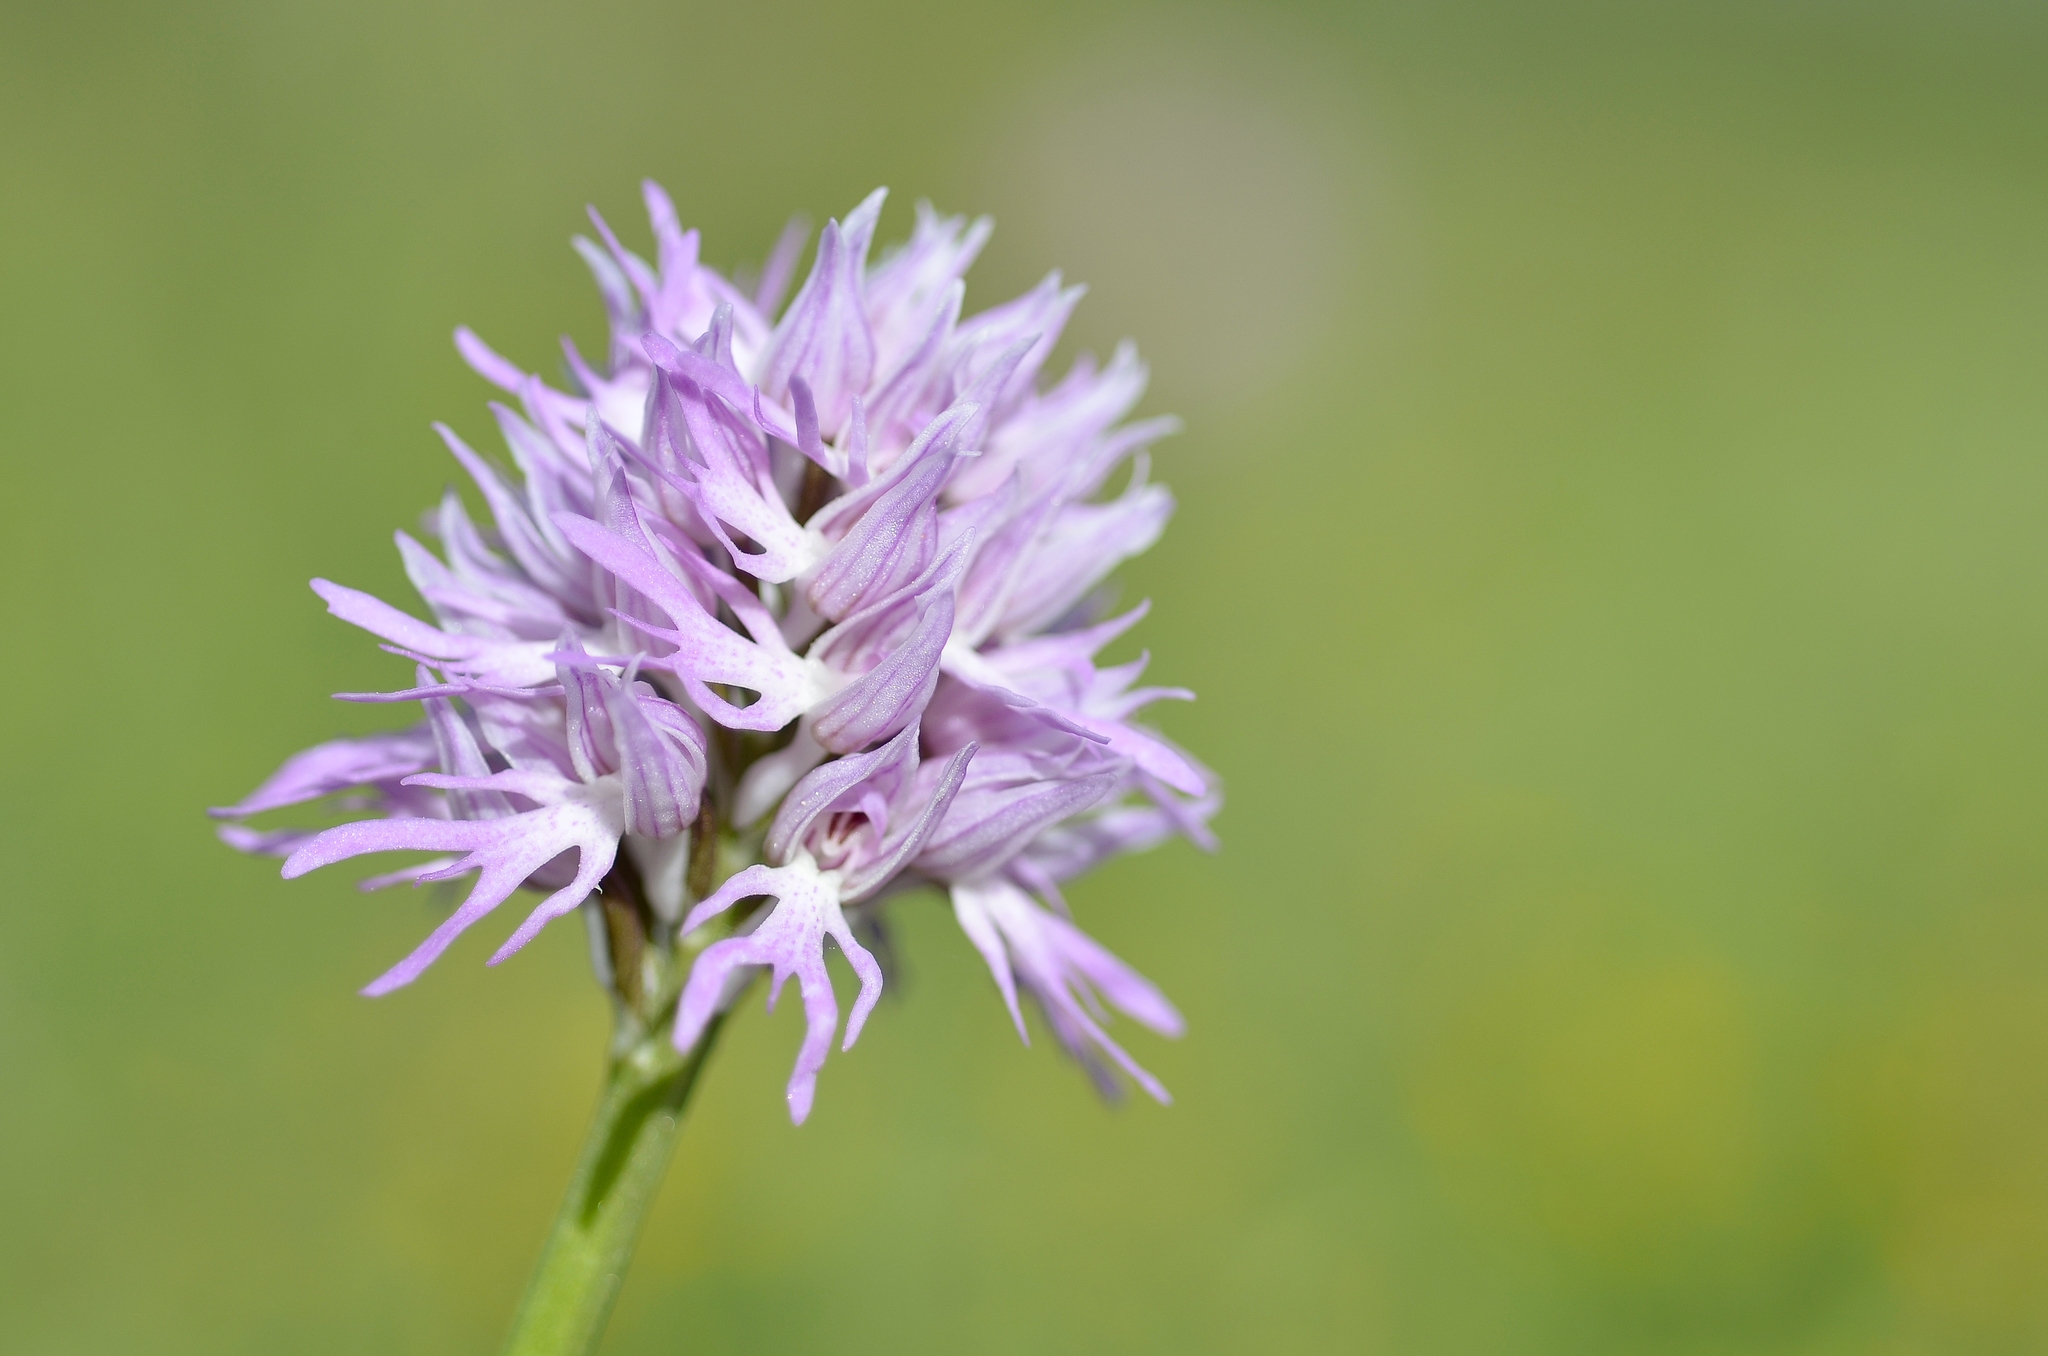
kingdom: Plantae
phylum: Tracheophyta
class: Liliopsida
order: Asparagales
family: Orchidaceae
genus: Orchis
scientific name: Orchis italica
